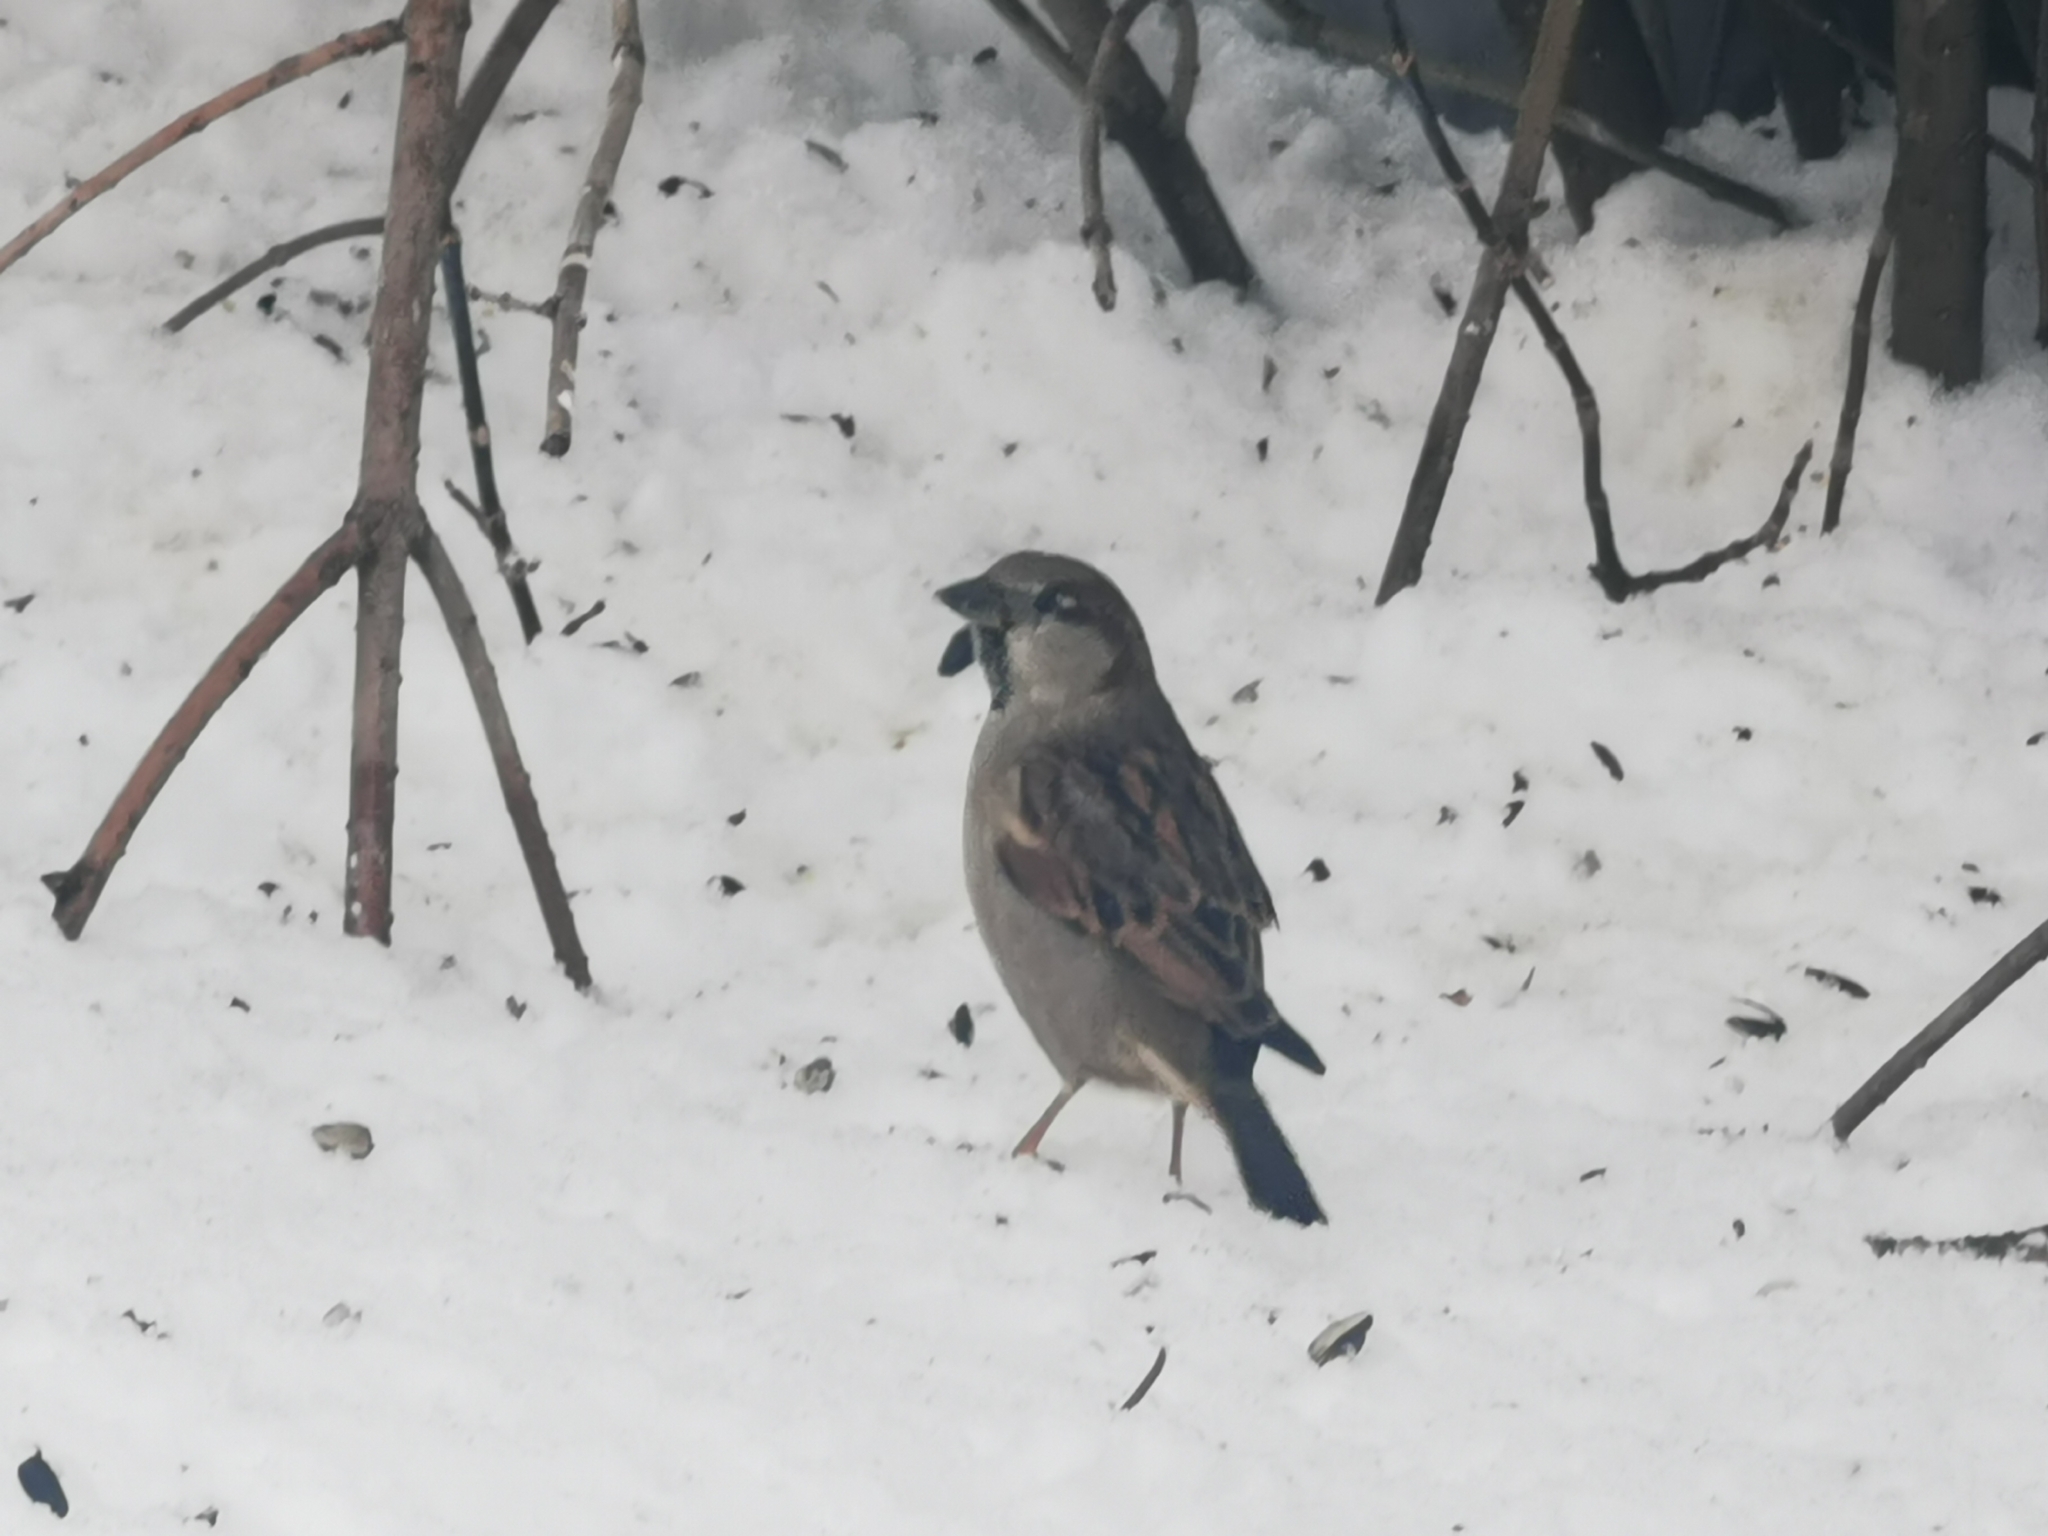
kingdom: Animalia
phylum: Chordata
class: Aves
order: Passeriformes
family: Passeridae
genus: Passer
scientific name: Passer domesticus
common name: House sparrow
